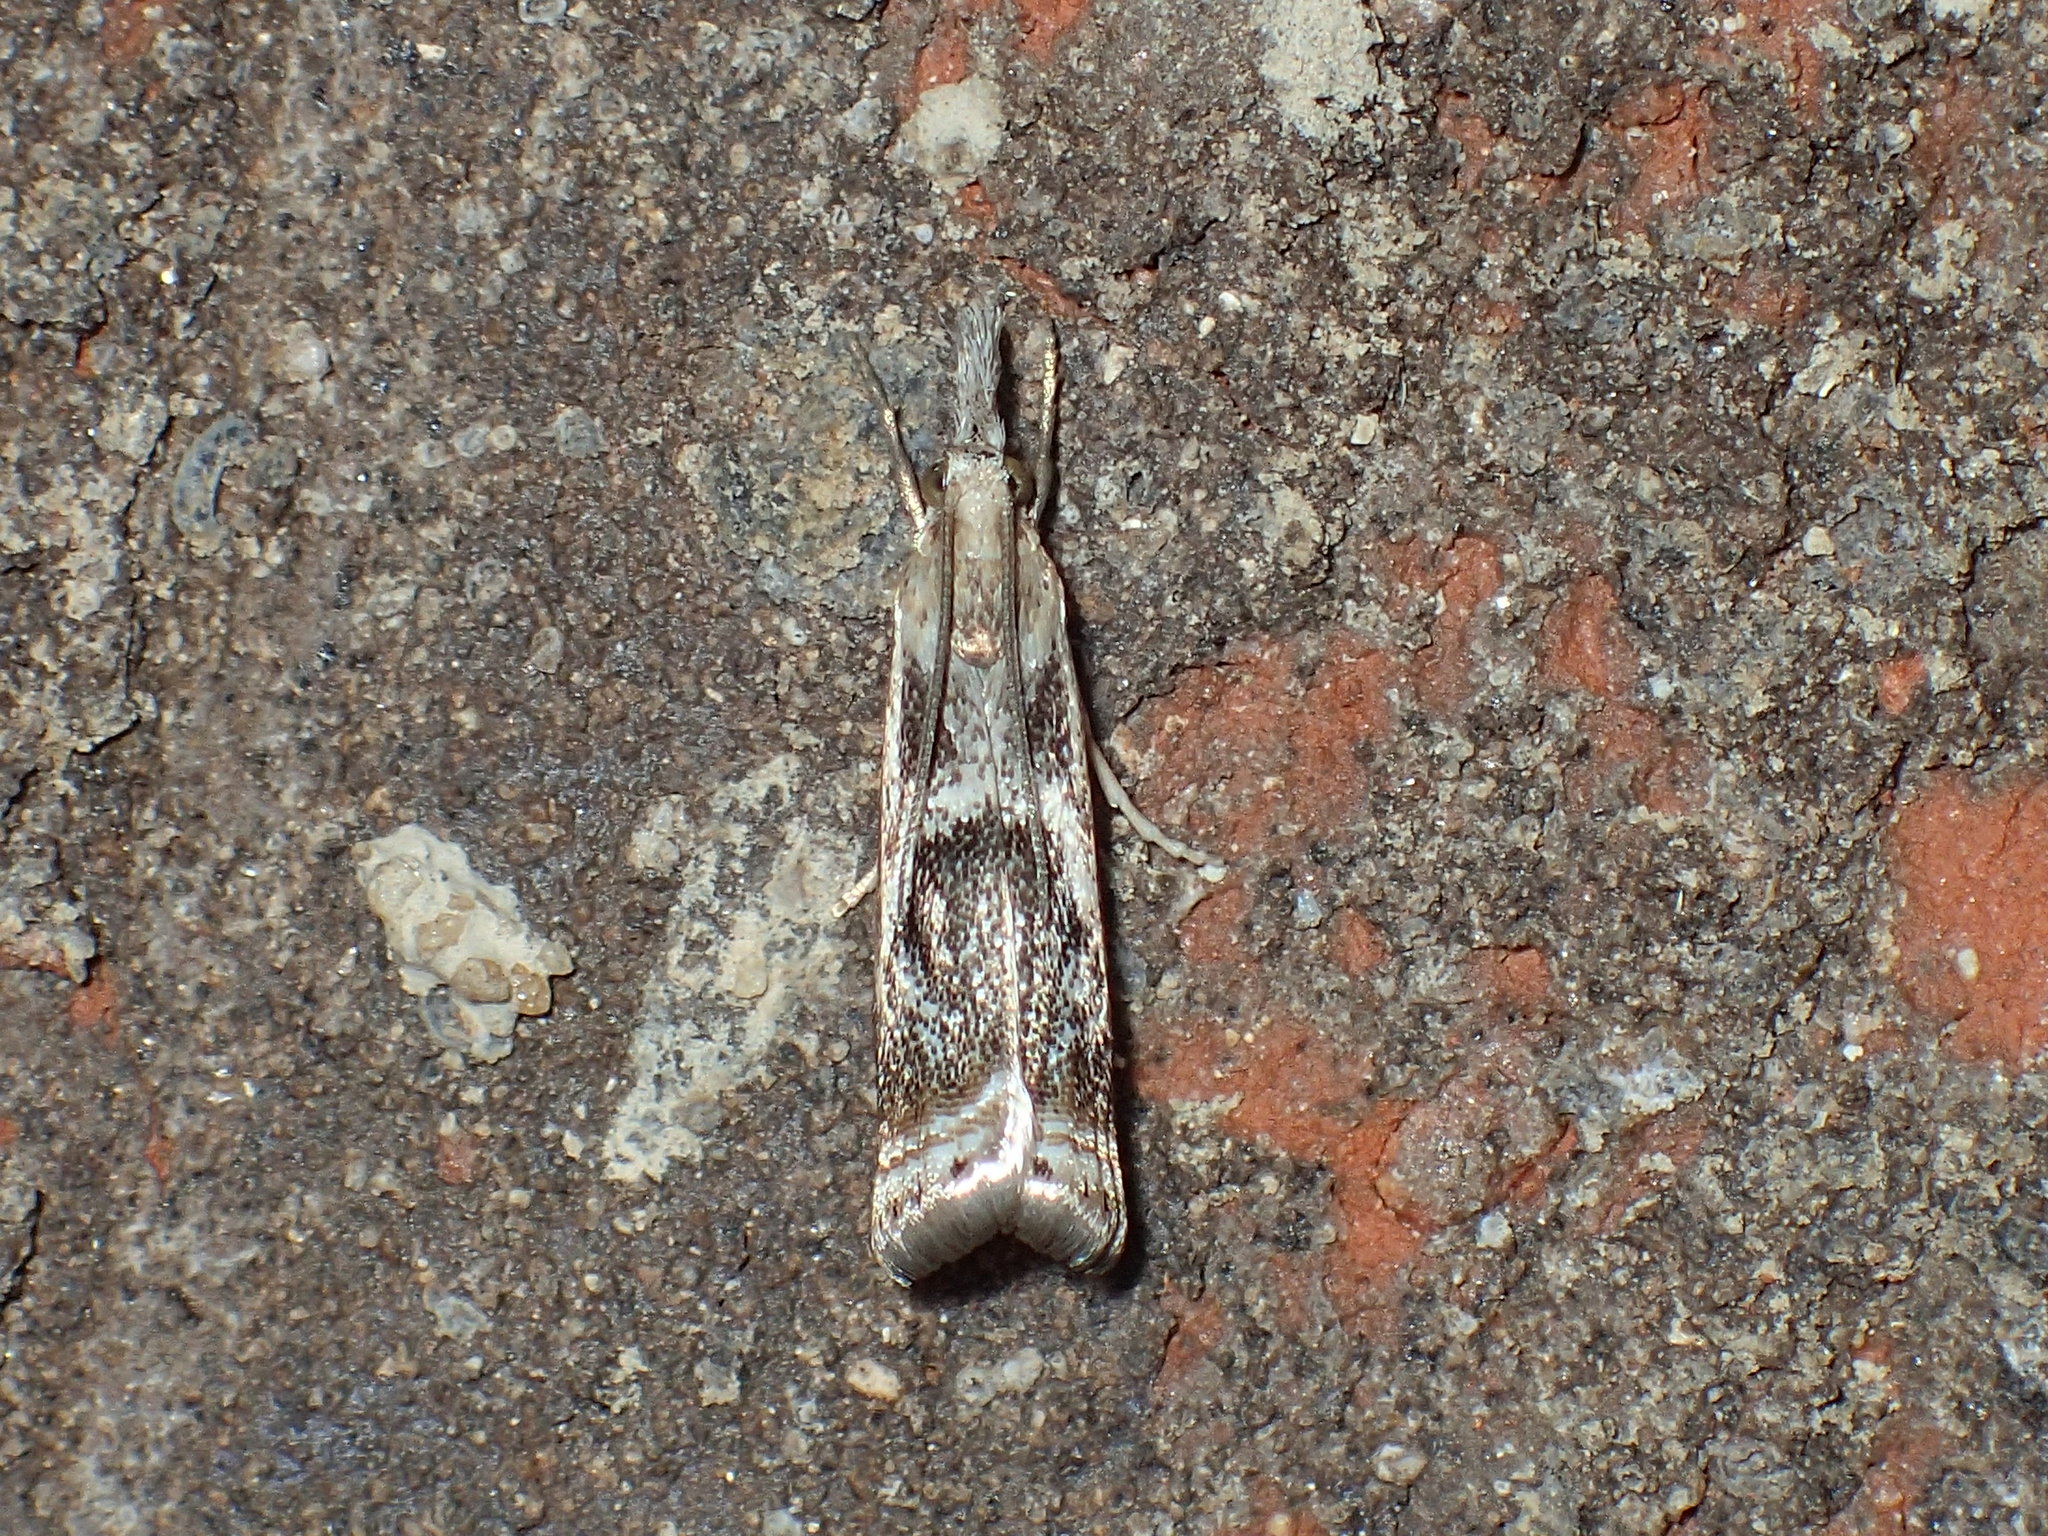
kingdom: Animalia
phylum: Arthropoda
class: Insecta
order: Lepidoptera
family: Crambidae
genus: Microcrambus
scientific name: Microcrambus elegans
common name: Elegant grass-veneer
